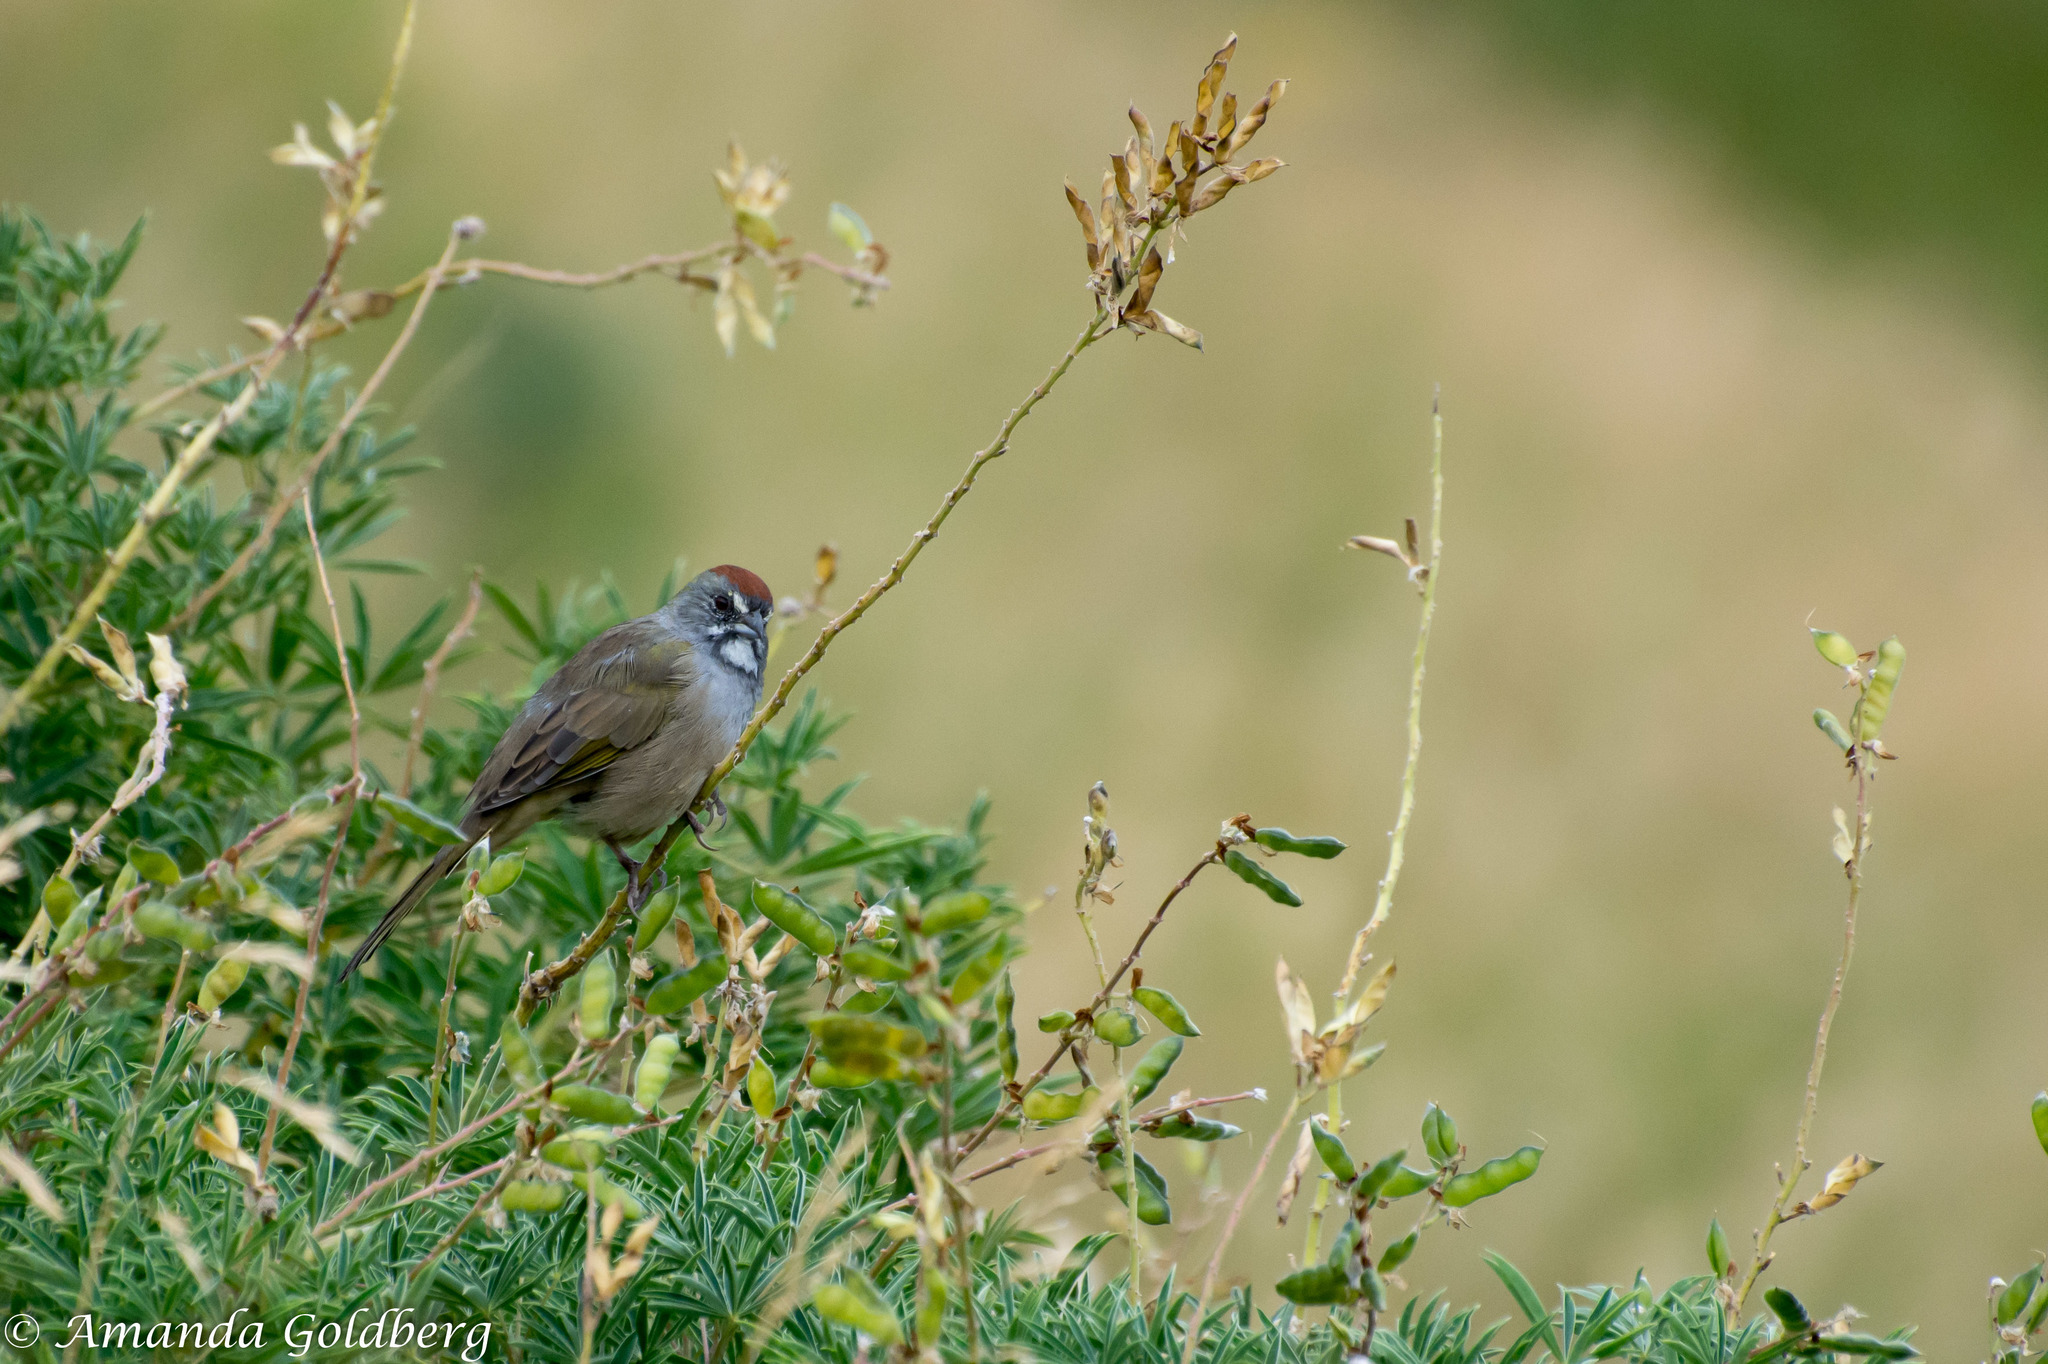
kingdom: Animalia
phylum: Chordata
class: Aves
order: Passeriformes
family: Passerellidae
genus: Pipilo
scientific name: Pipilo chlorurus
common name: Green-tailed towhee
